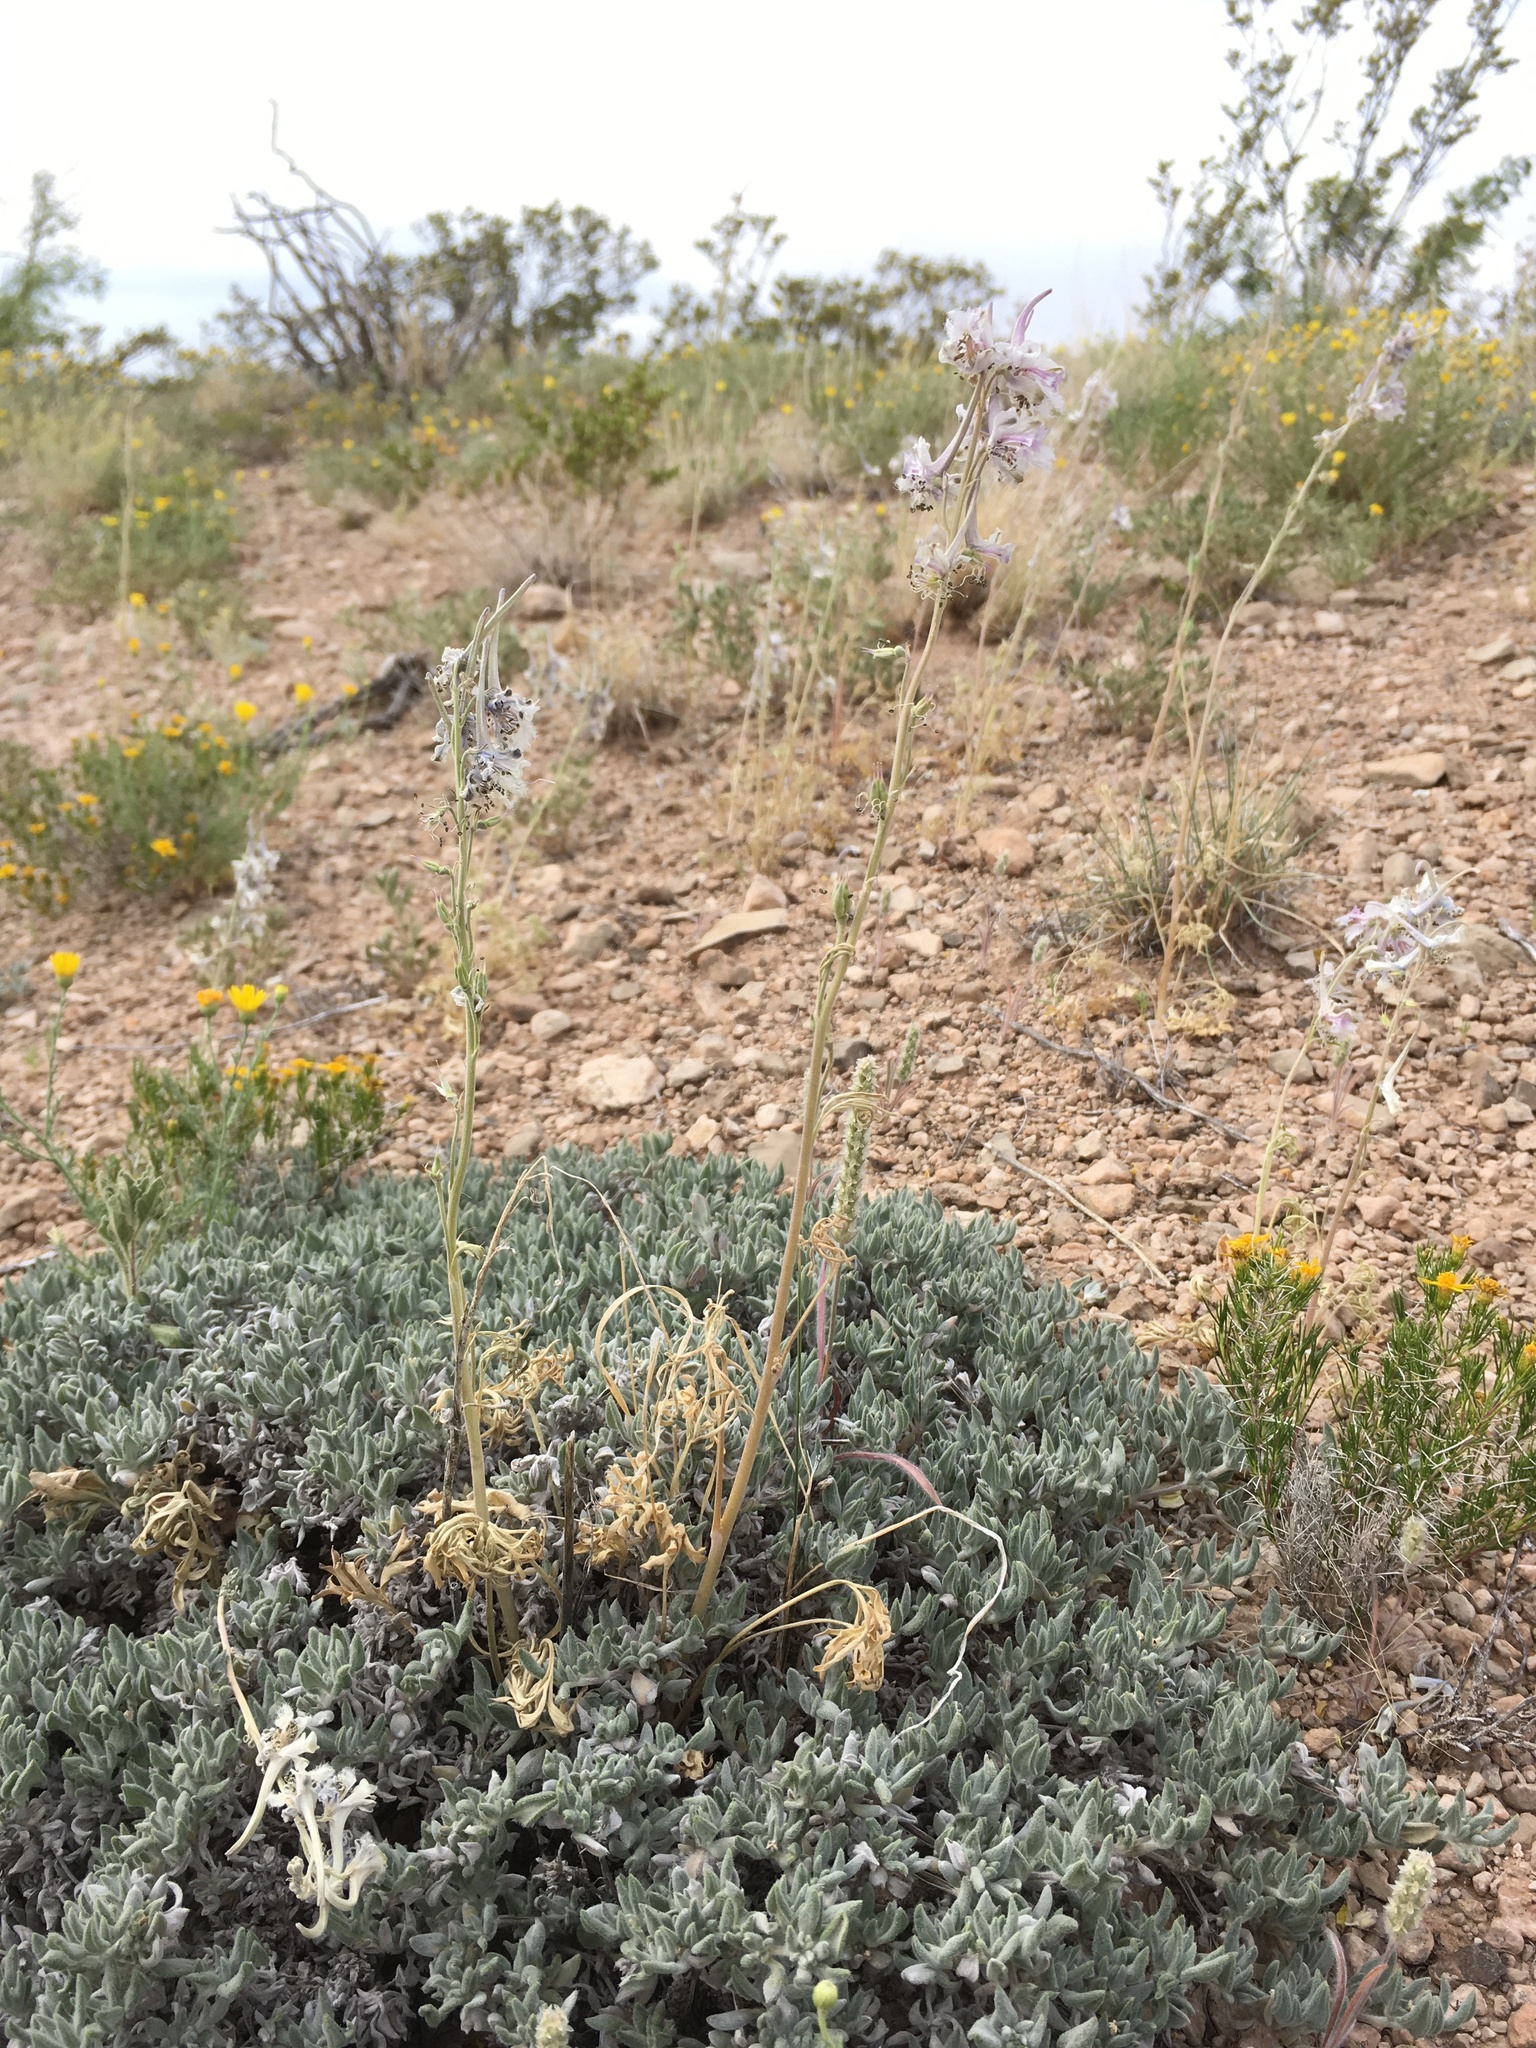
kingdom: Plantae
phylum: Tracheophyta
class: Magnoliopsida
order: Ranunculales
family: Ranunculaceae
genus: Delphinium
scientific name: Delphinium wootonii
